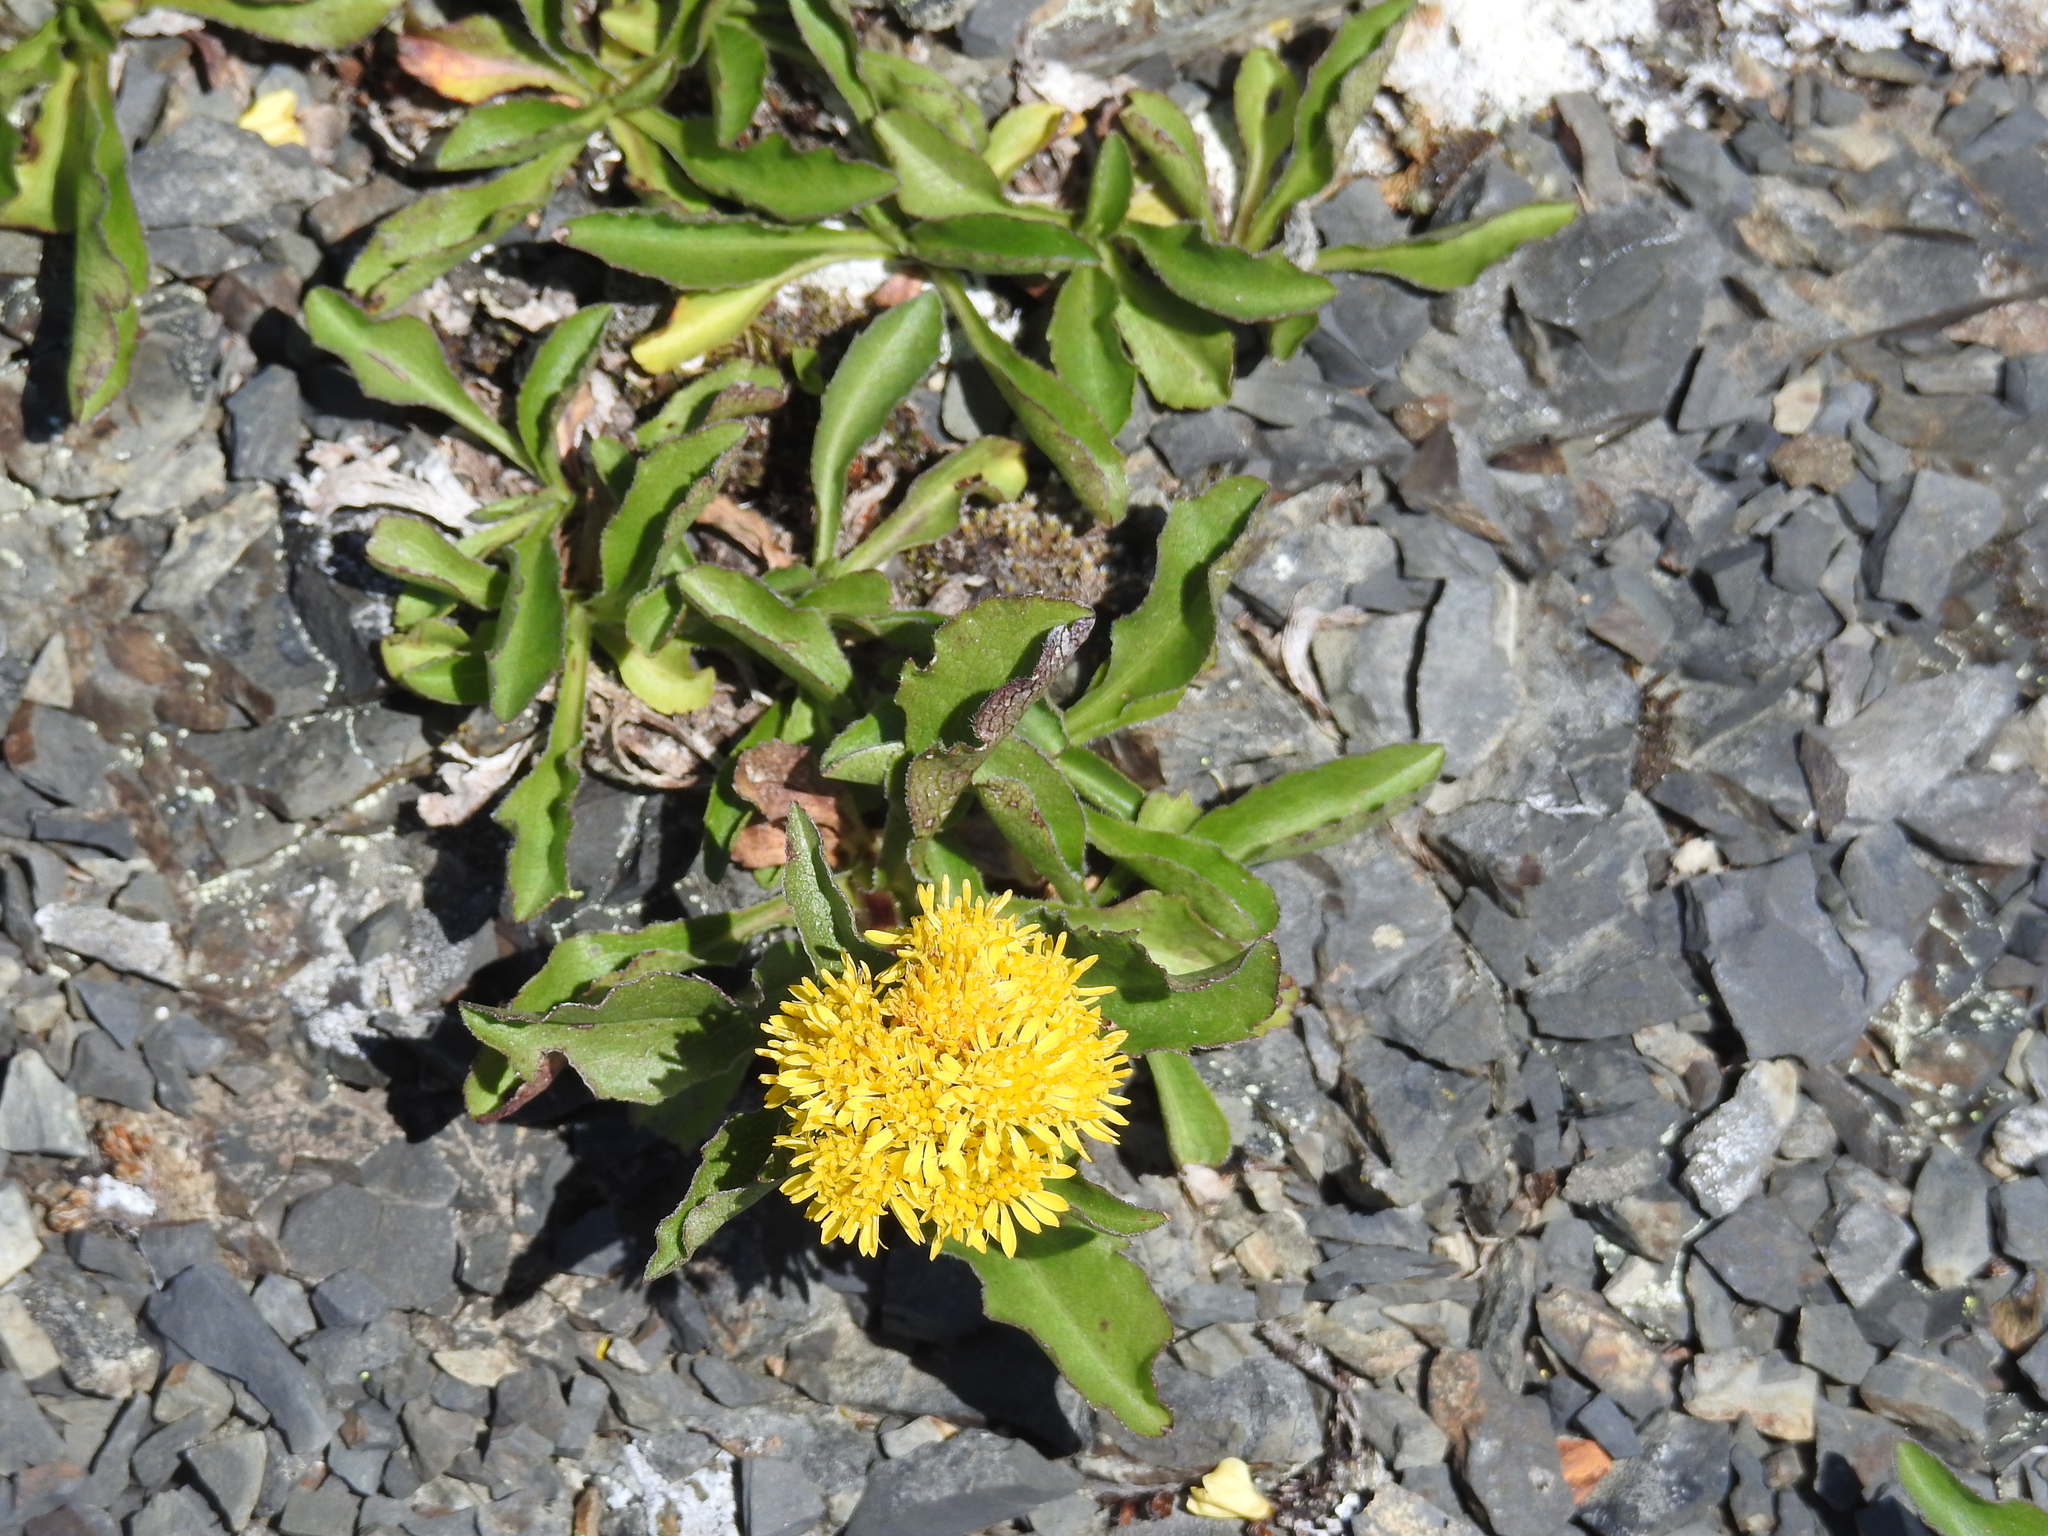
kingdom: Plantae
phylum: Tracheophyta
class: Magnoliopsida
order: Asterales
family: Asteraceae
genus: Solidago
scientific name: Solidago multiradiata
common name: Northern goldenrod
